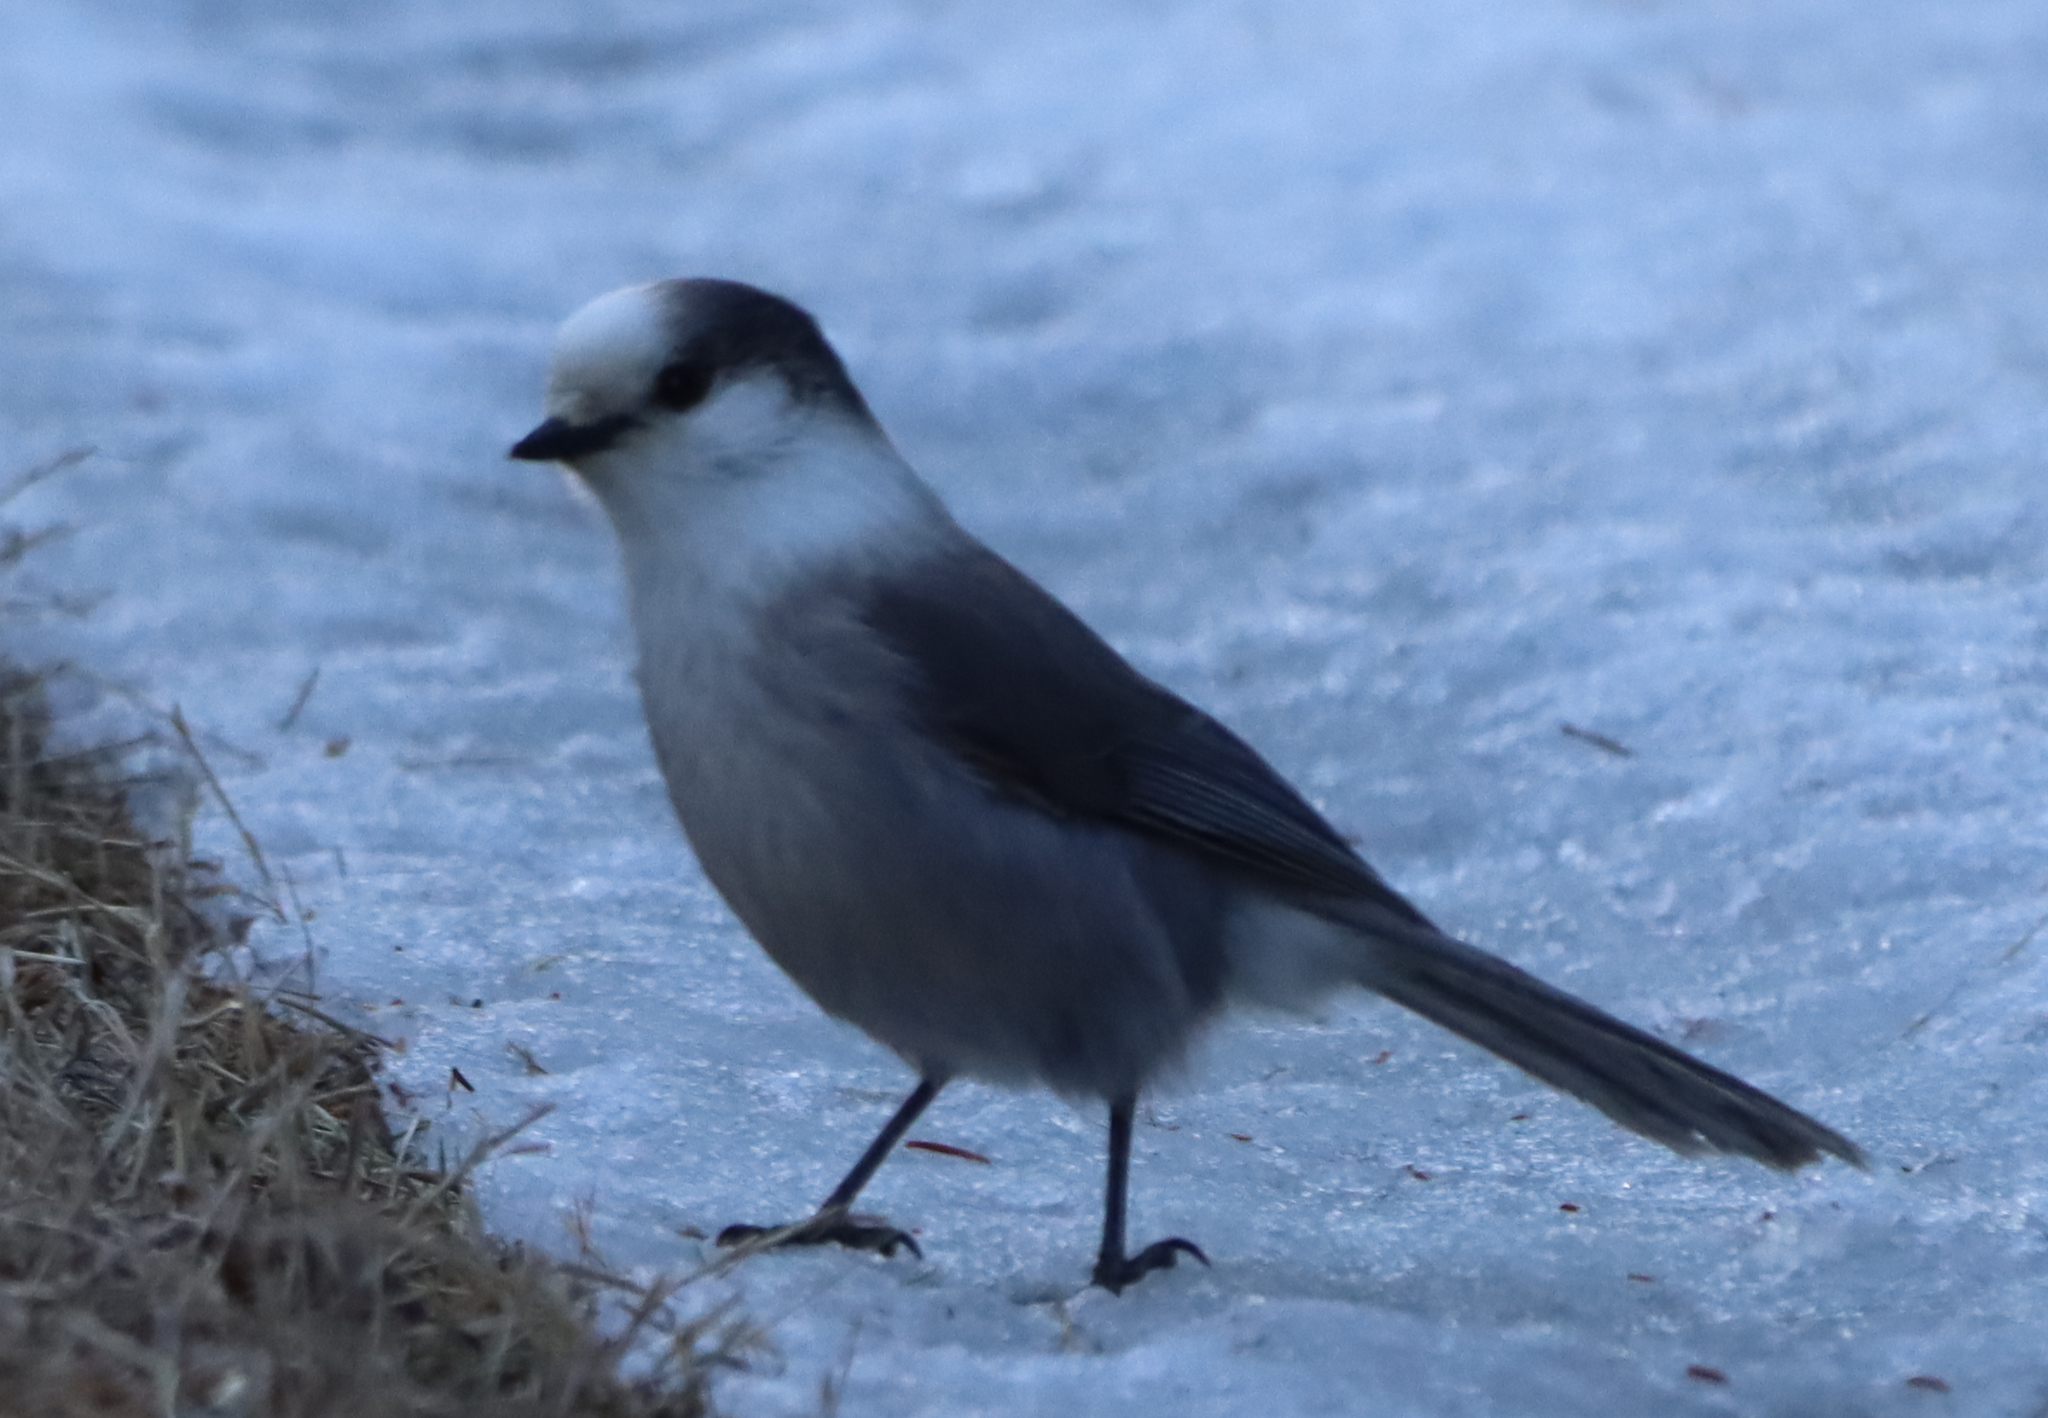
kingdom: Animalia
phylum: Chordata
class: Aves
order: Passeriformes
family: Corvidae
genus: Perisoreus
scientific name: Perisoreus canadensis
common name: Gray jay
